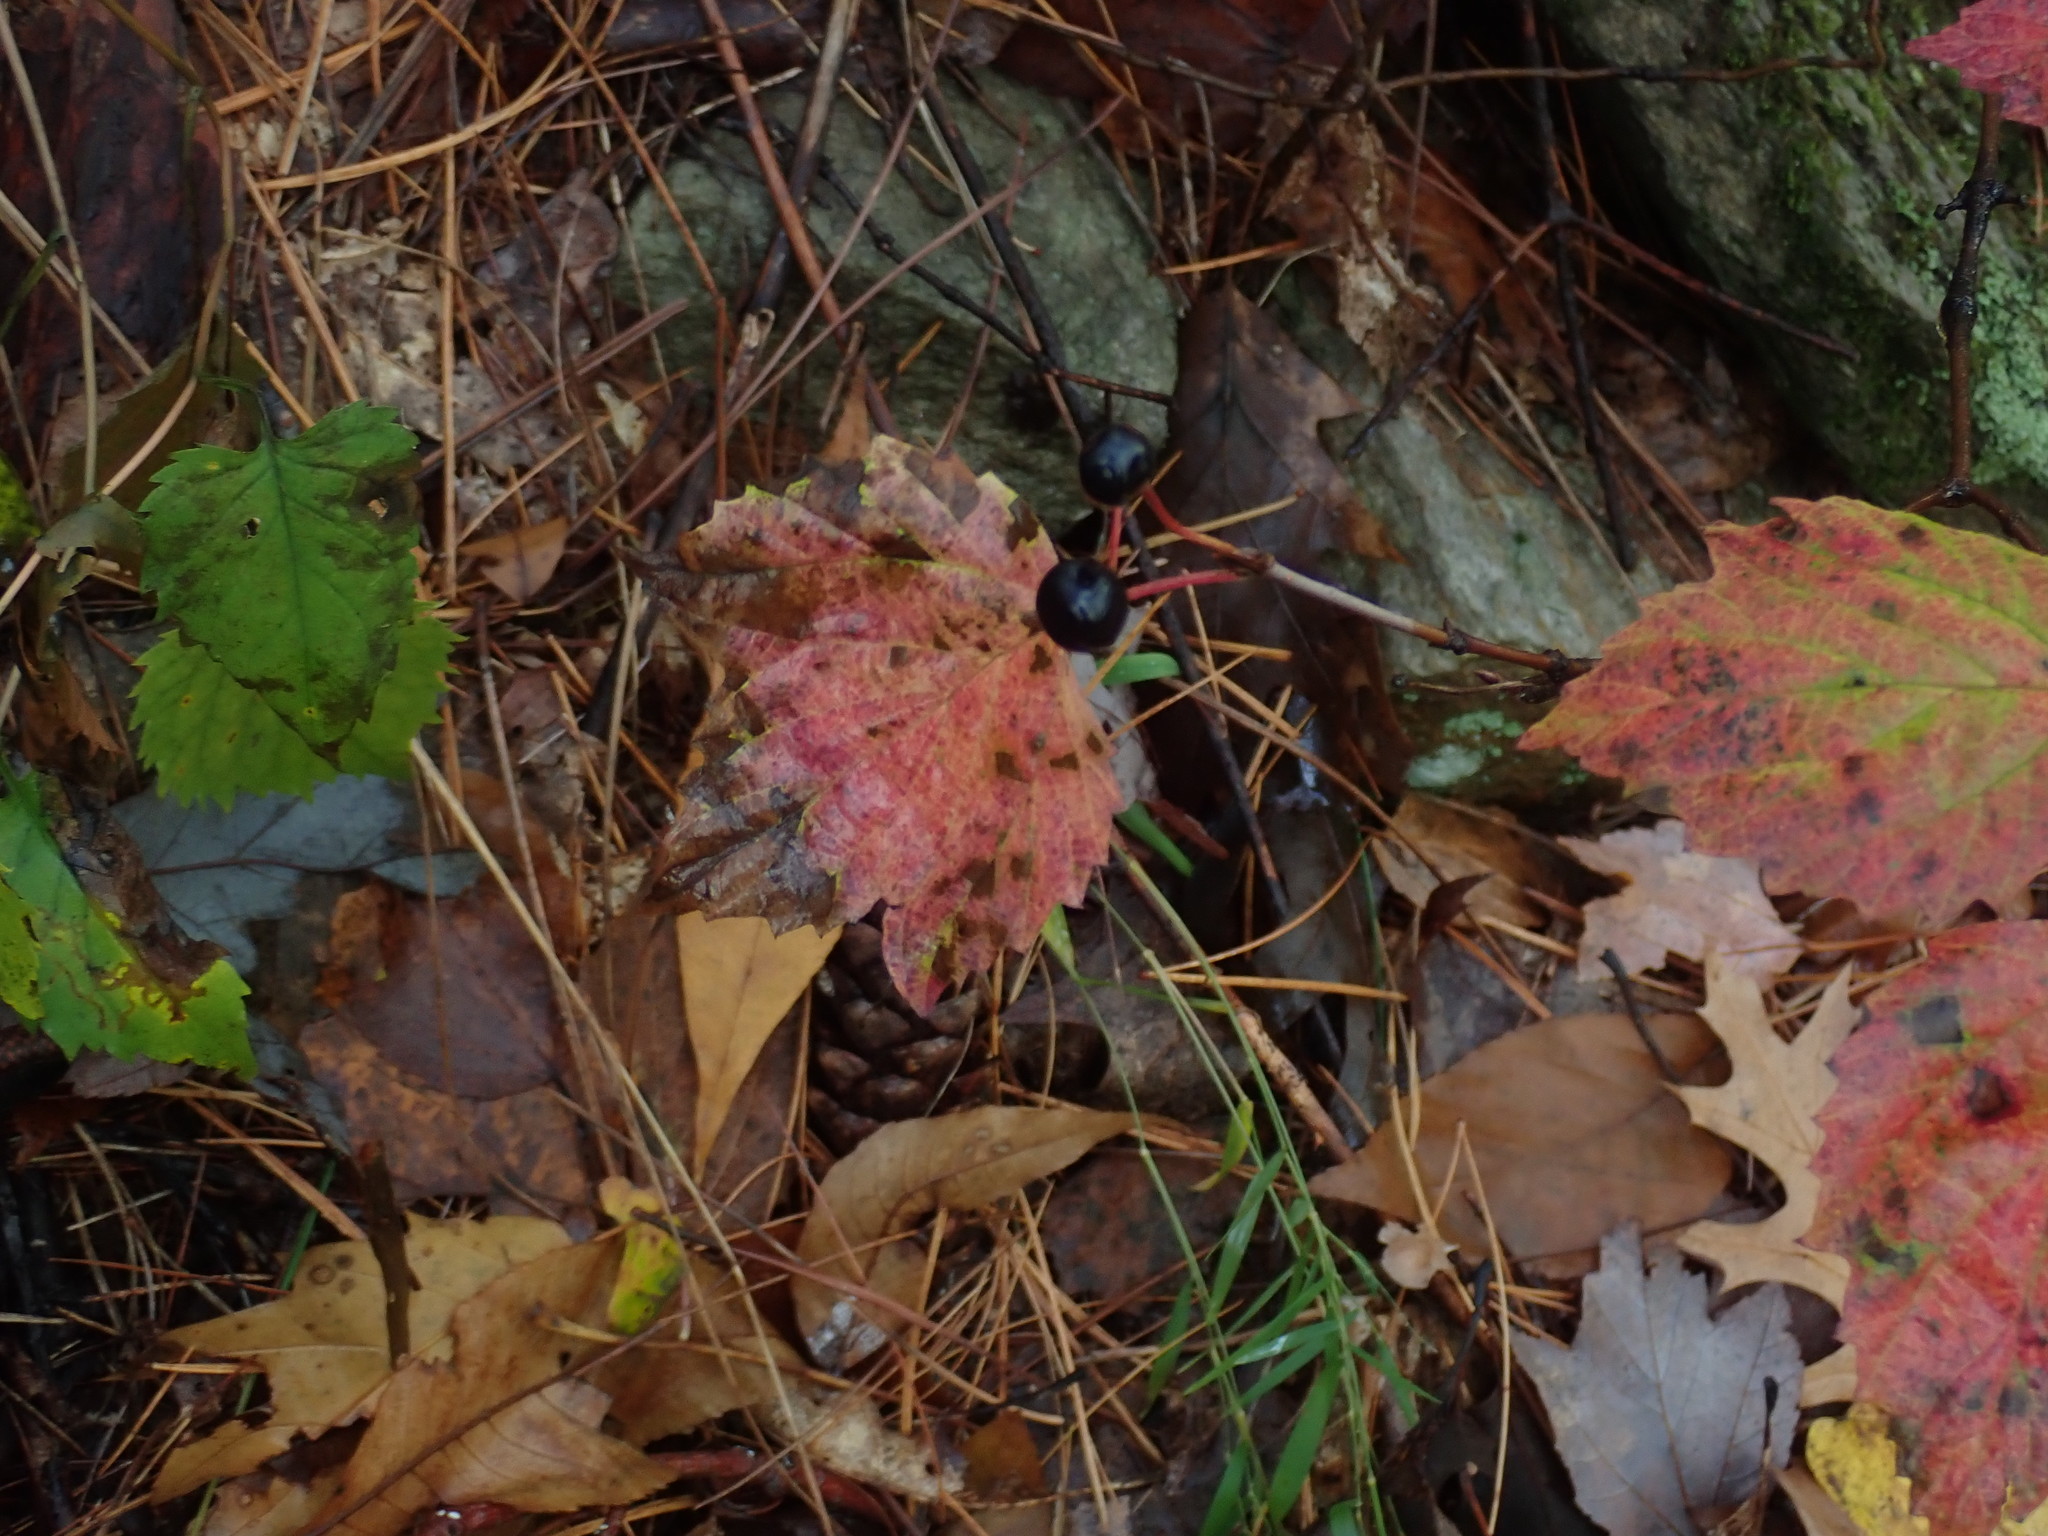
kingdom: Plantae
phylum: Tracheophyta
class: Magnoliopsida
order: Dipsacales
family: Viburnaceae
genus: Viburnum
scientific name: Viburnum acerifolium
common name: Dockmackie
